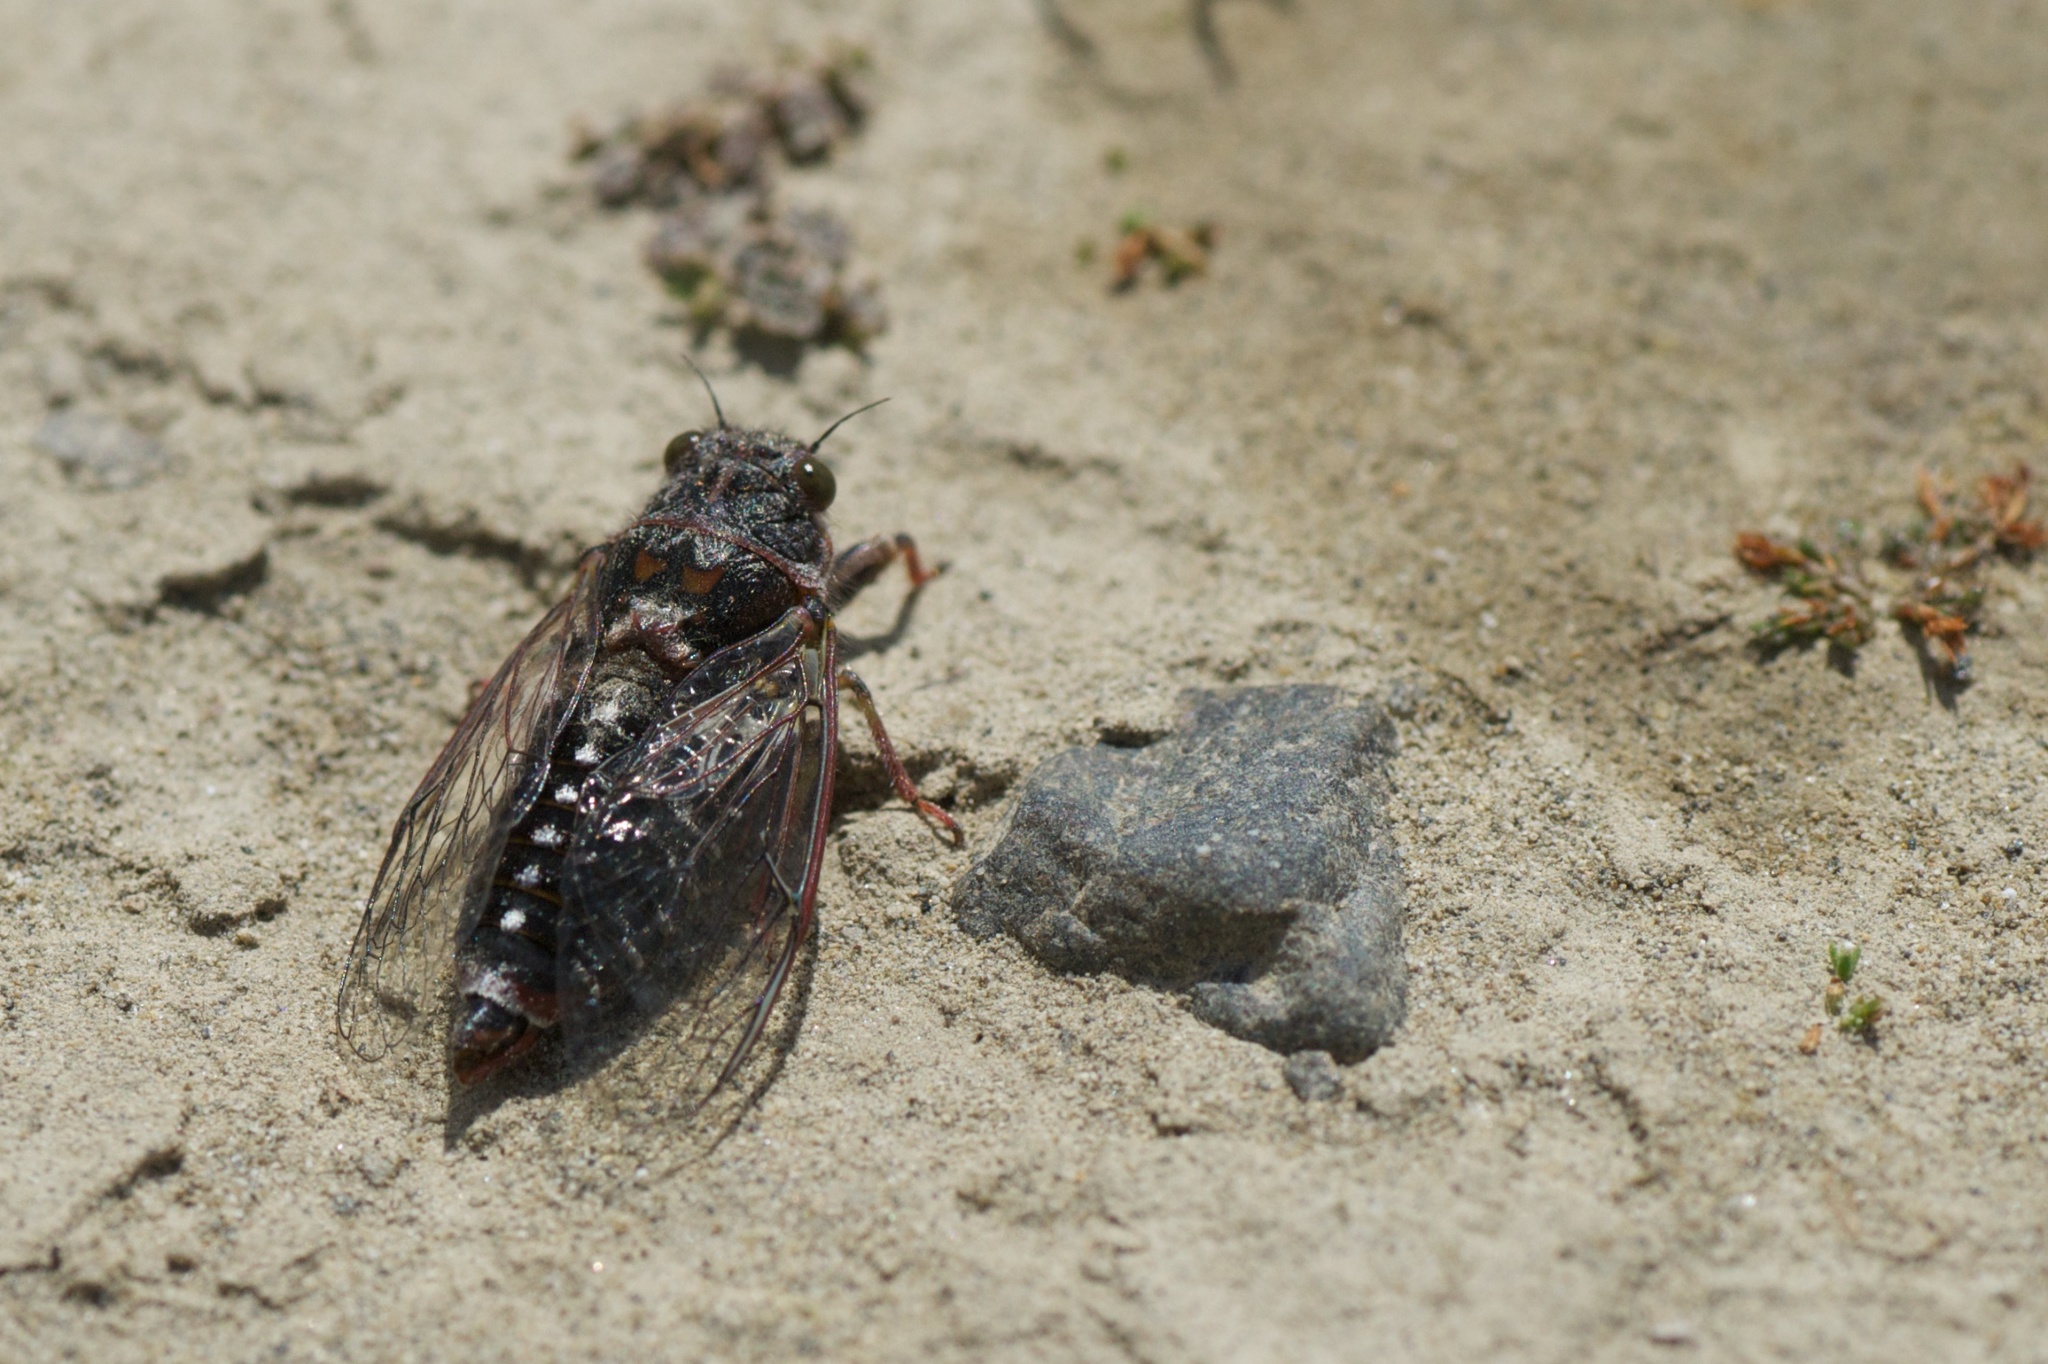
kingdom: Animalia
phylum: Arthropoda
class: Insecta
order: Hemiptera
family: Cicadidae
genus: Maoricicada
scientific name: Maoricicada campbelli
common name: Campbell's cicada
